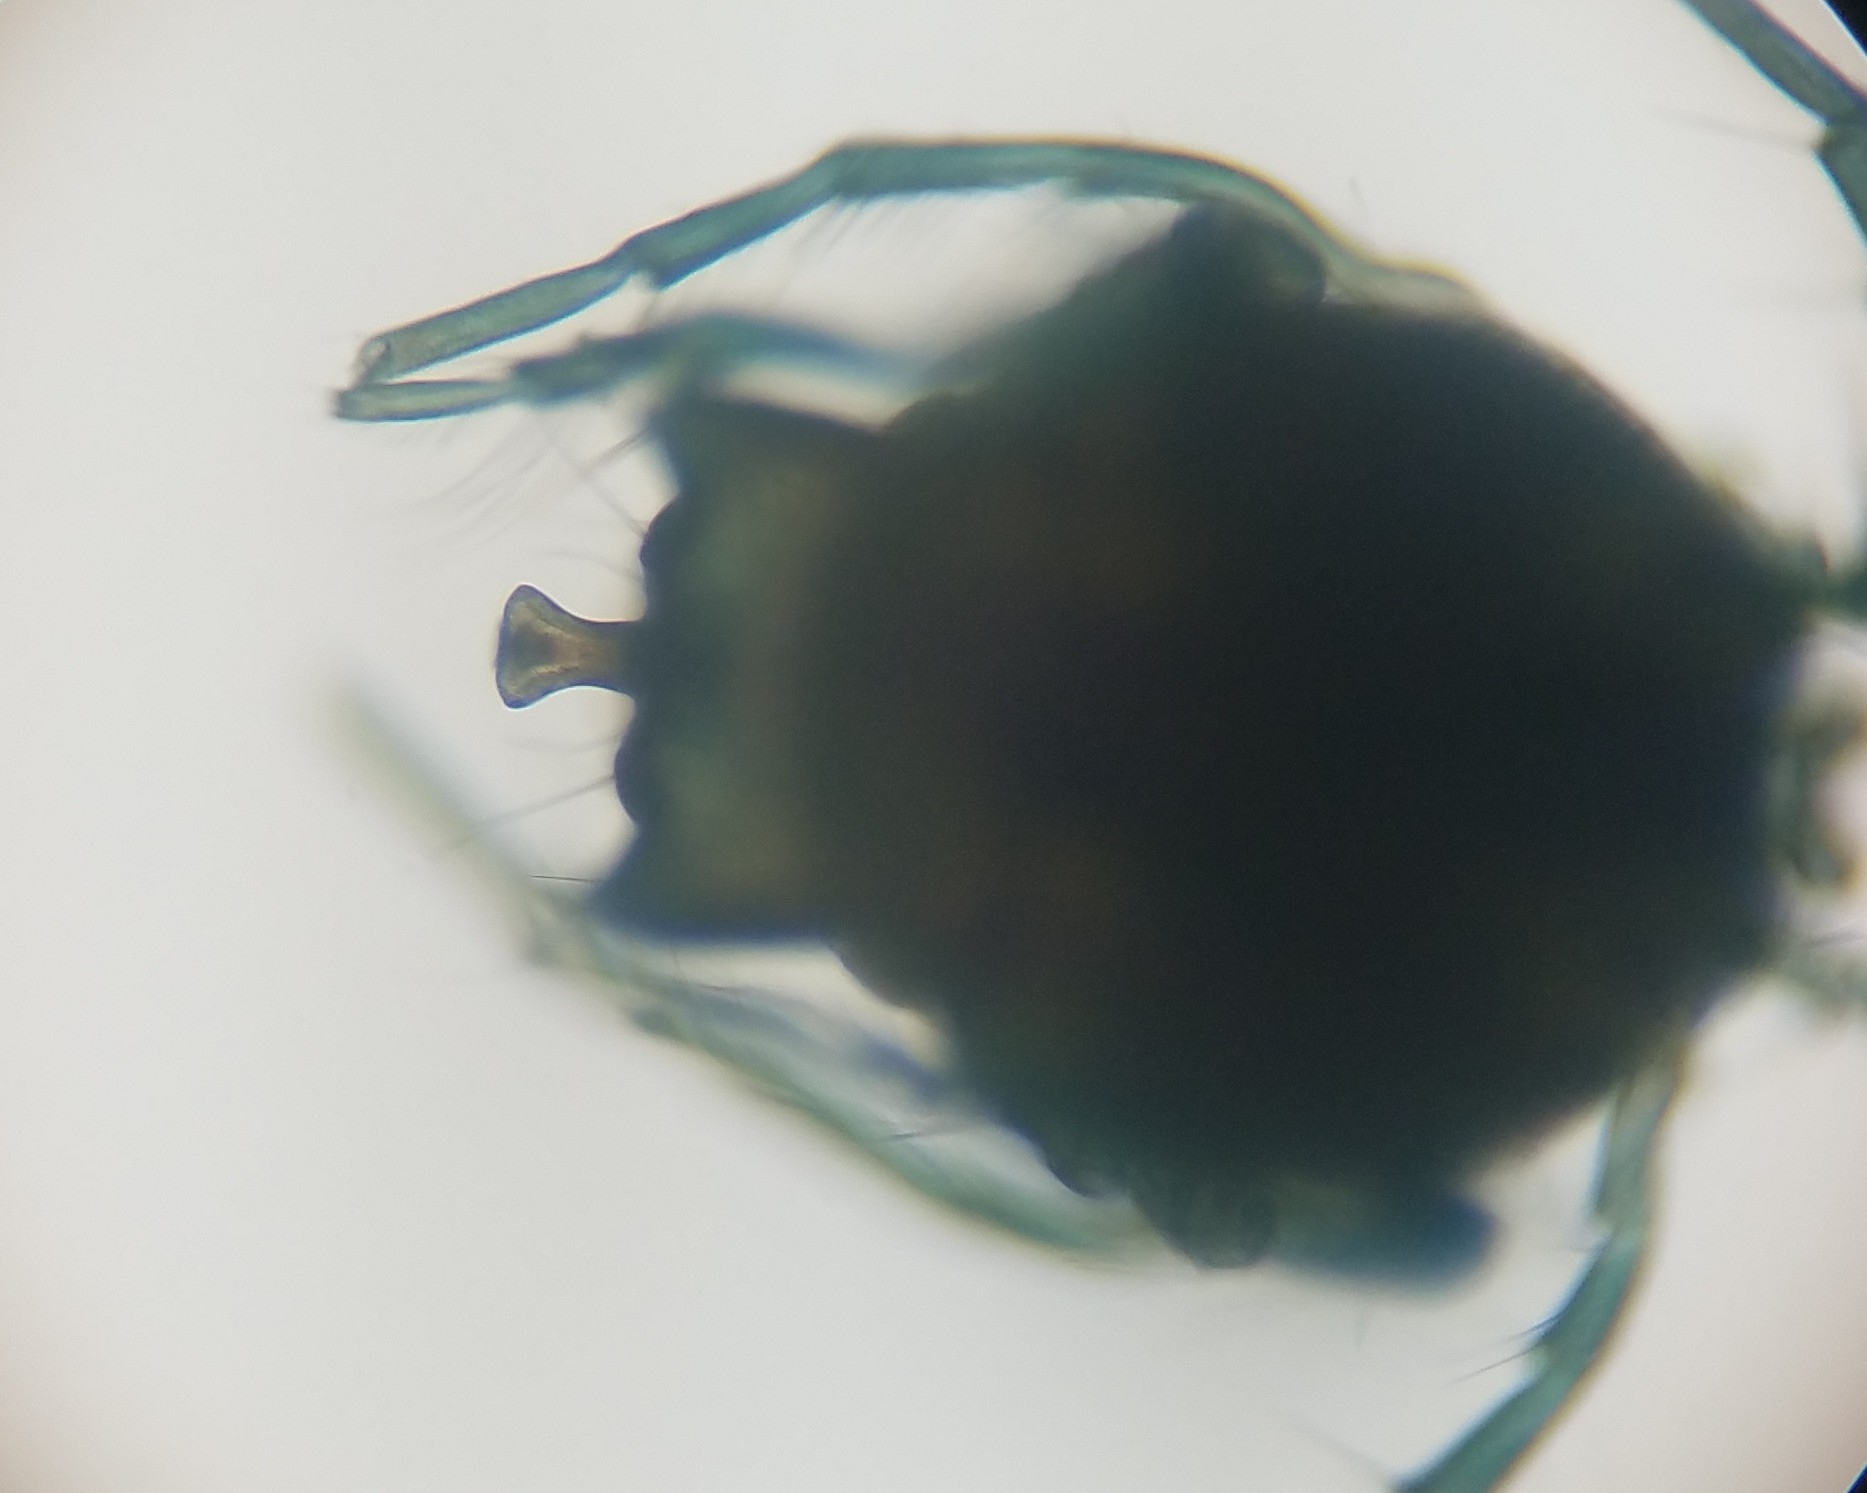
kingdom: Animalia
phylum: Arthropoda
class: Arachnida
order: Trombidiformes
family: Arrenuridae
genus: Arrenurus
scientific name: Arrenurus
